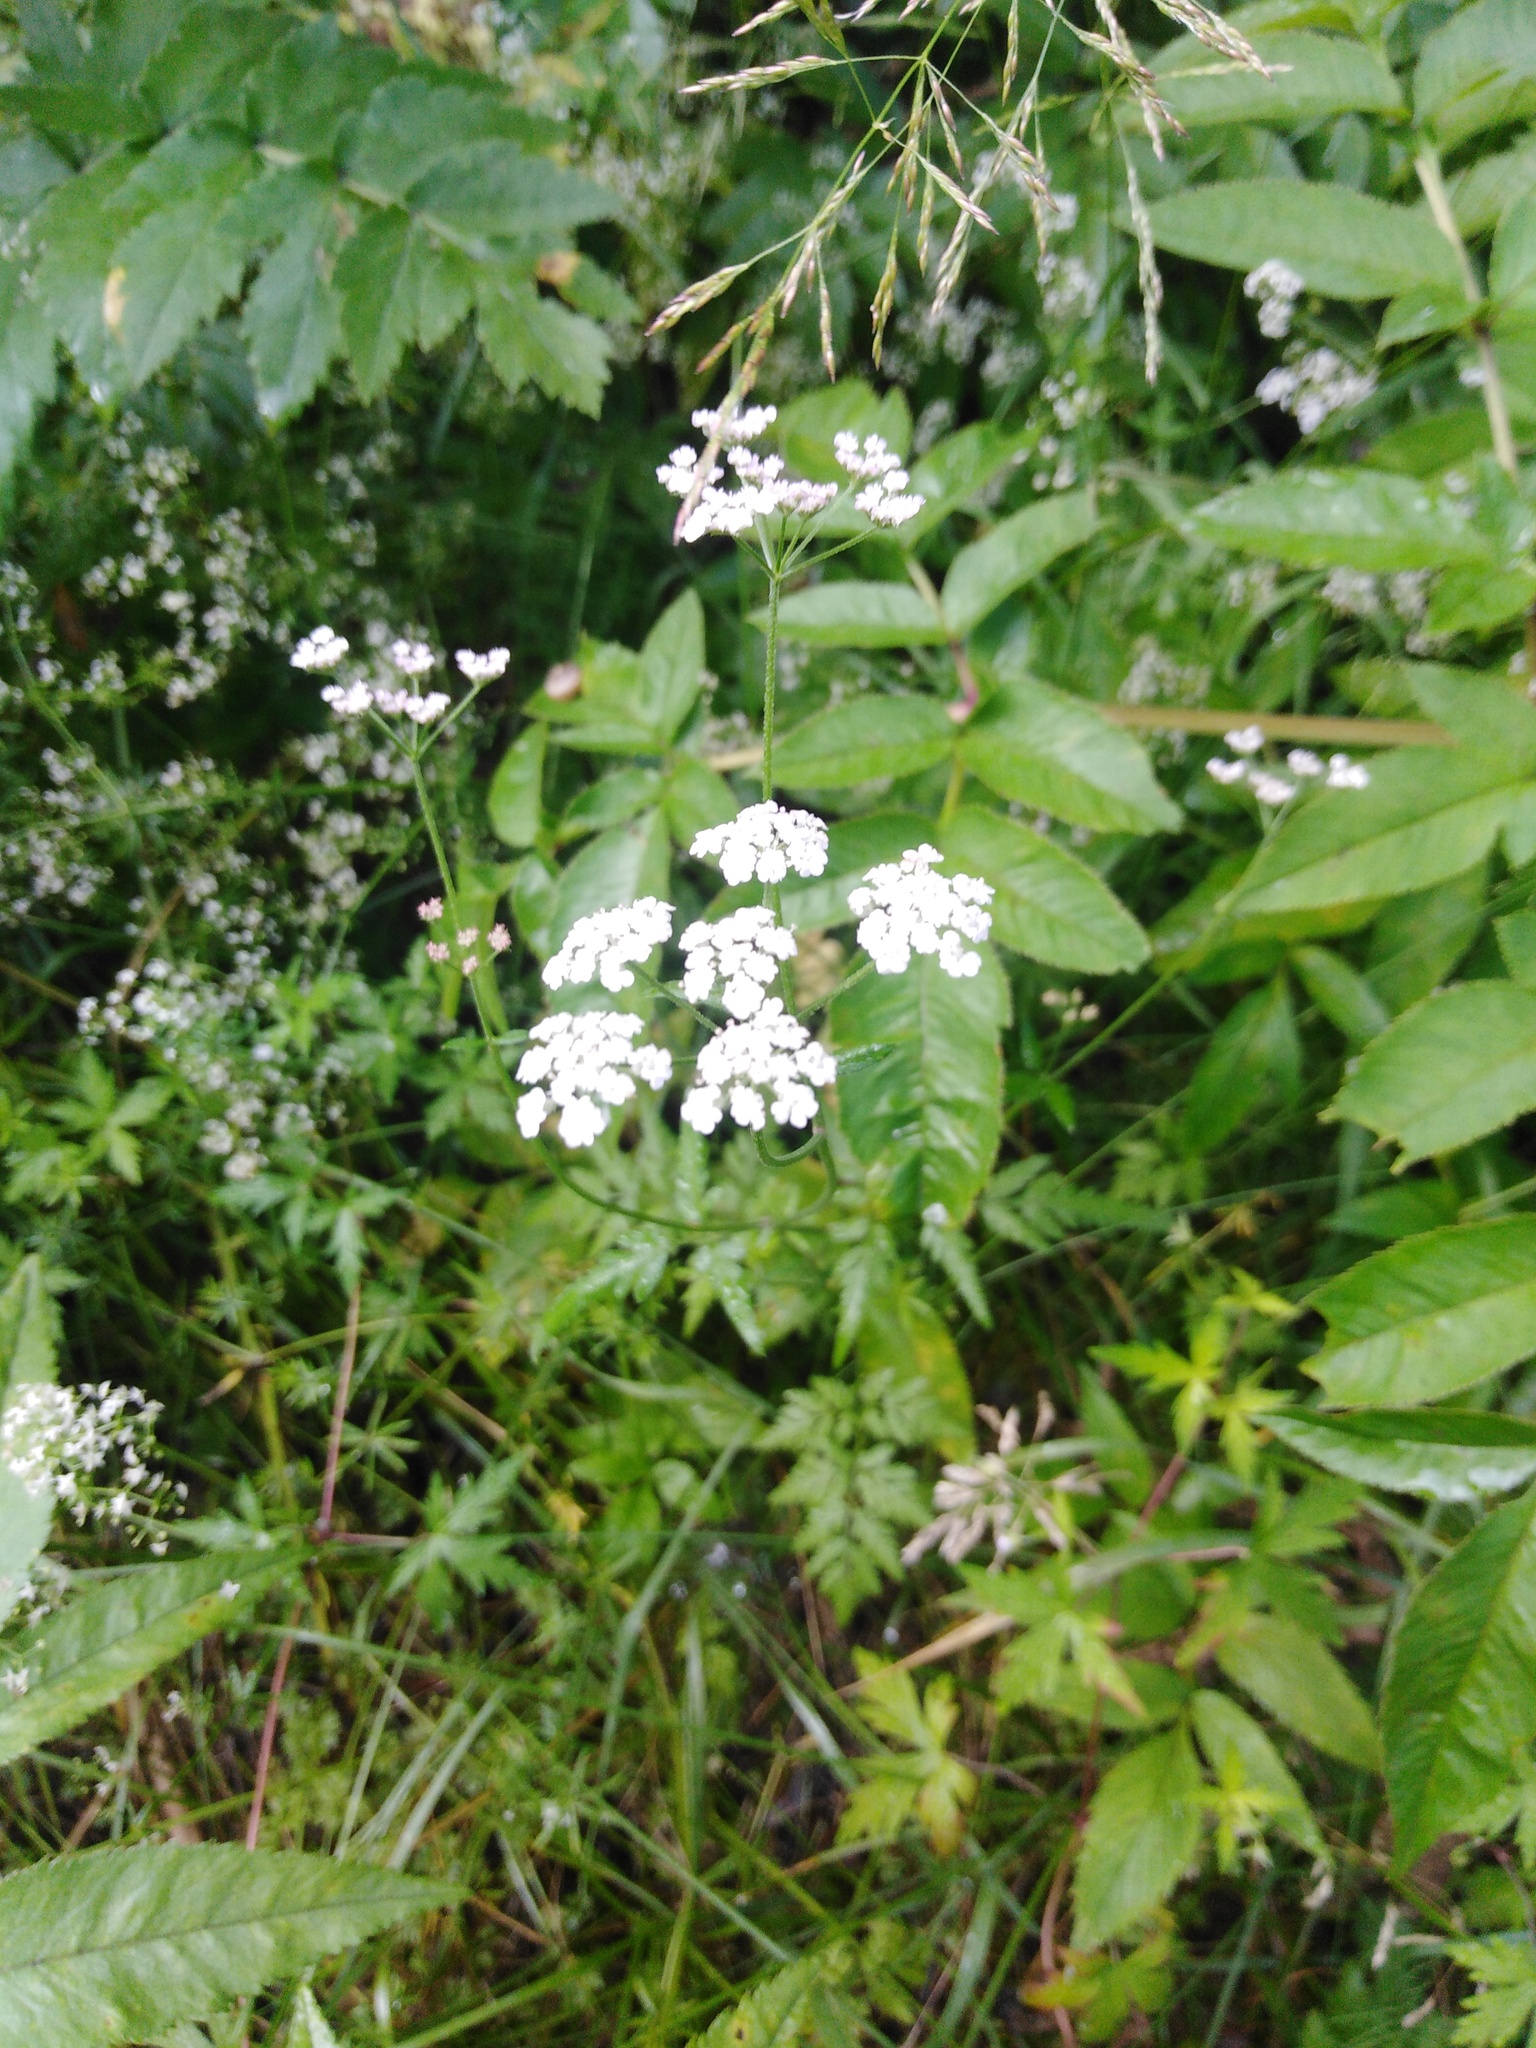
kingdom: Plantae
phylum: Tracheophyta
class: Magnoliopsida
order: Apiales
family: Apiaceae
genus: Torilis
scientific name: Torilis japonica
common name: Upright hedge-parsley
